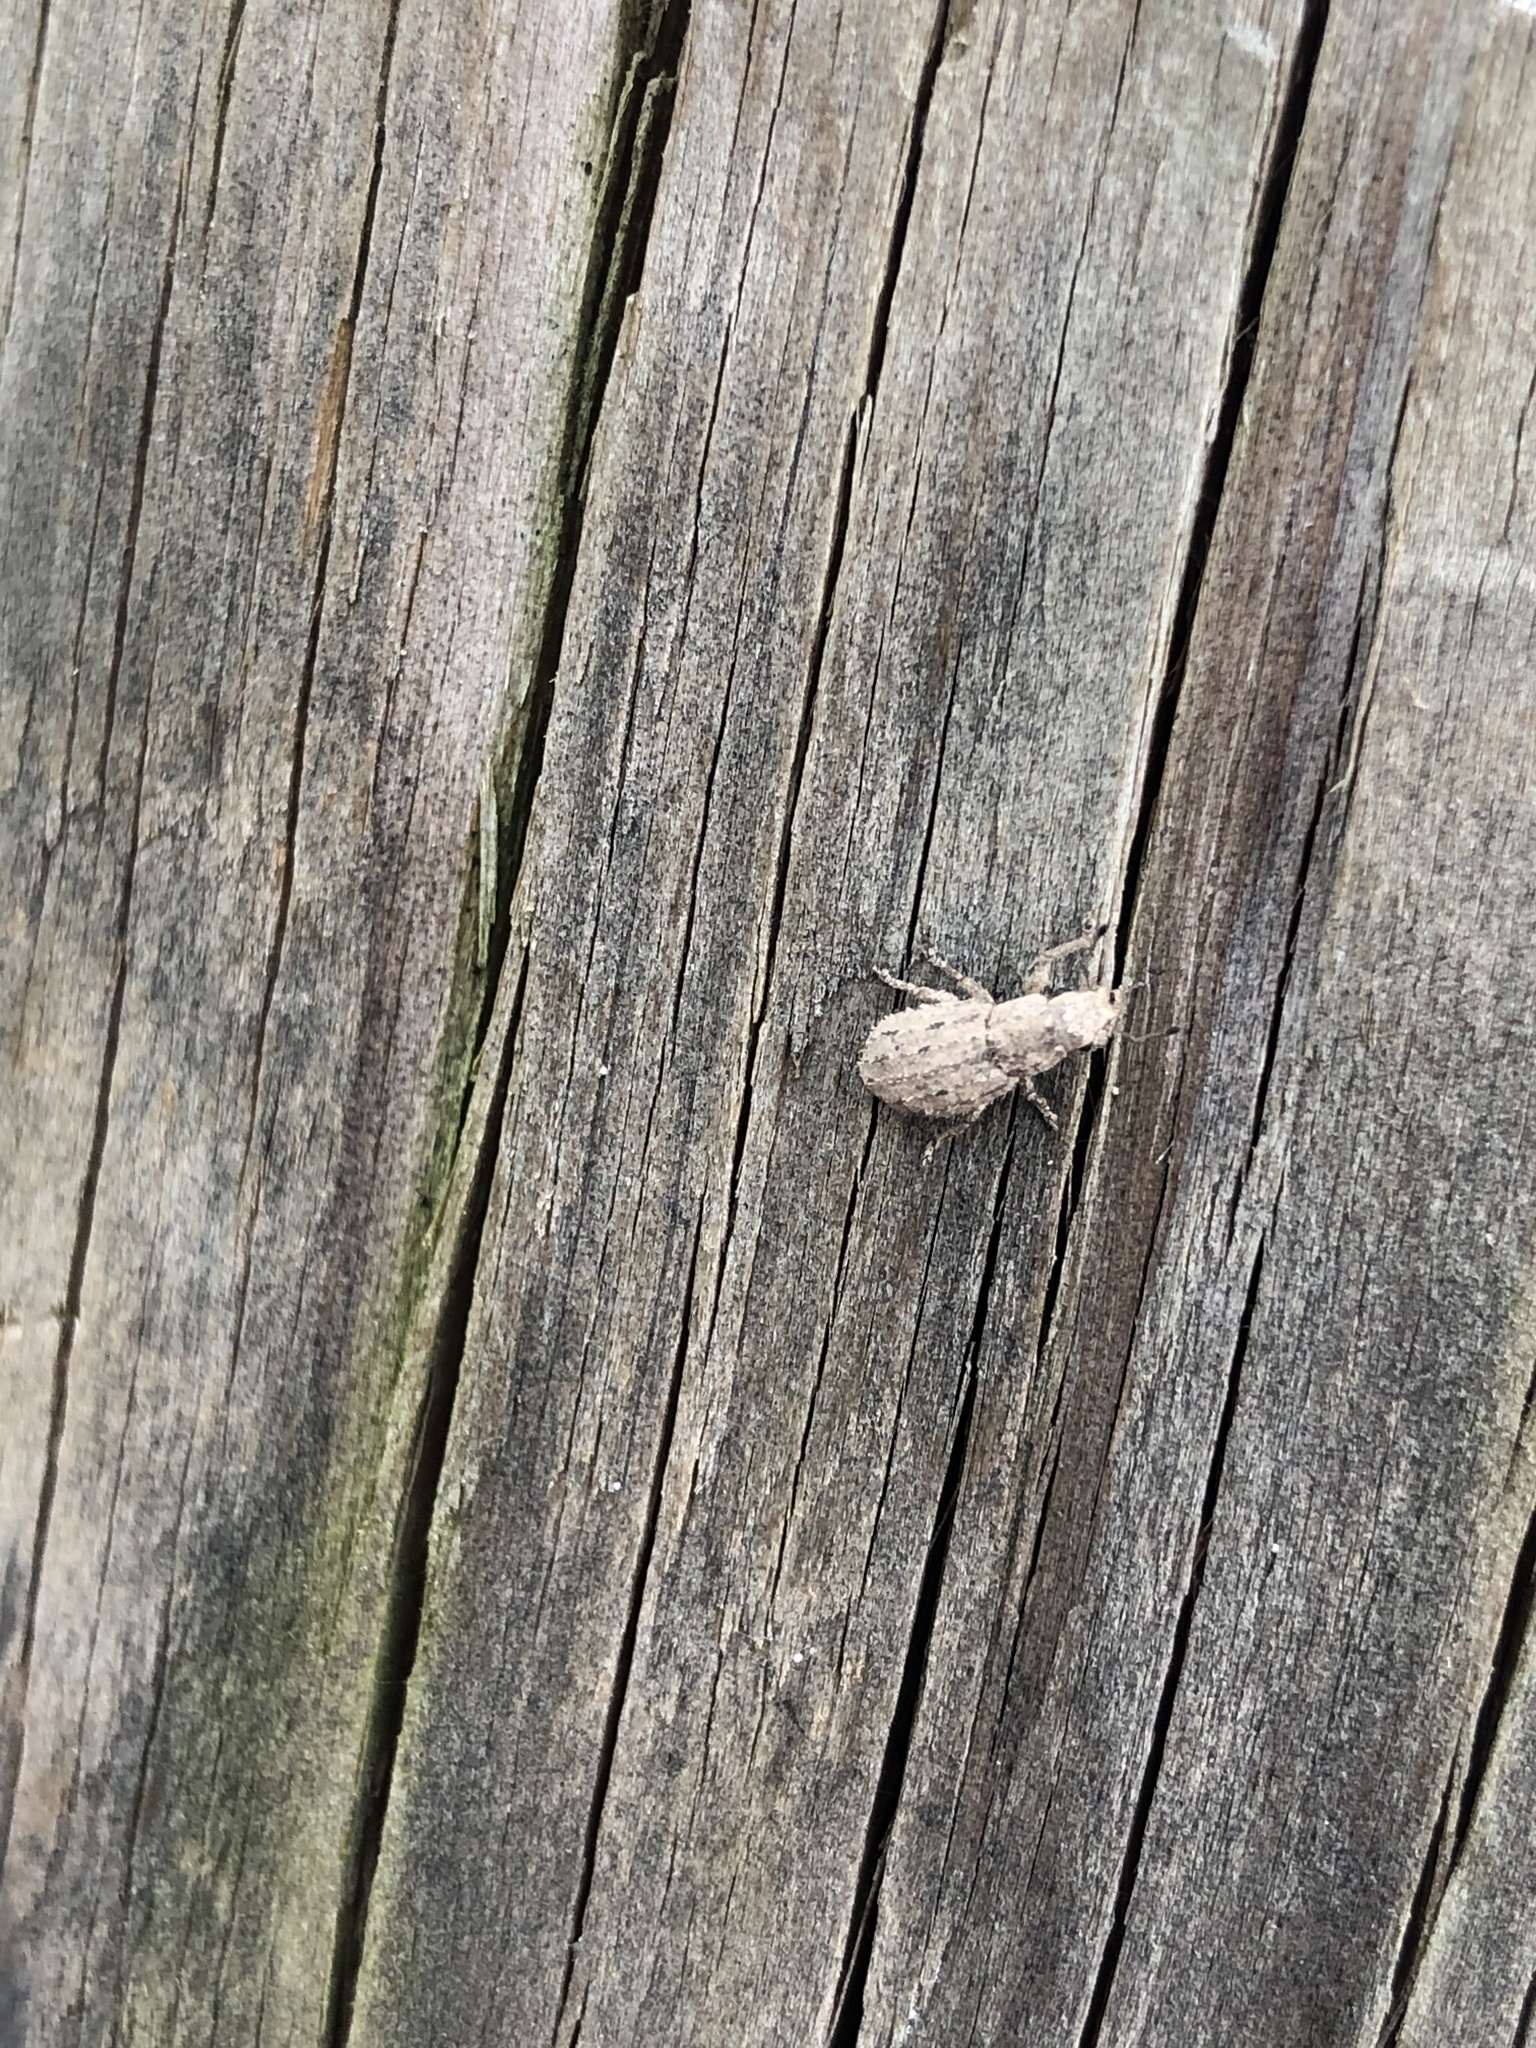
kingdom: Animalia
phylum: Arthropoda
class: Insecta
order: Coleoptera
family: Curculionidae
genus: Floresianus
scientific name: Floresianus sordidus
